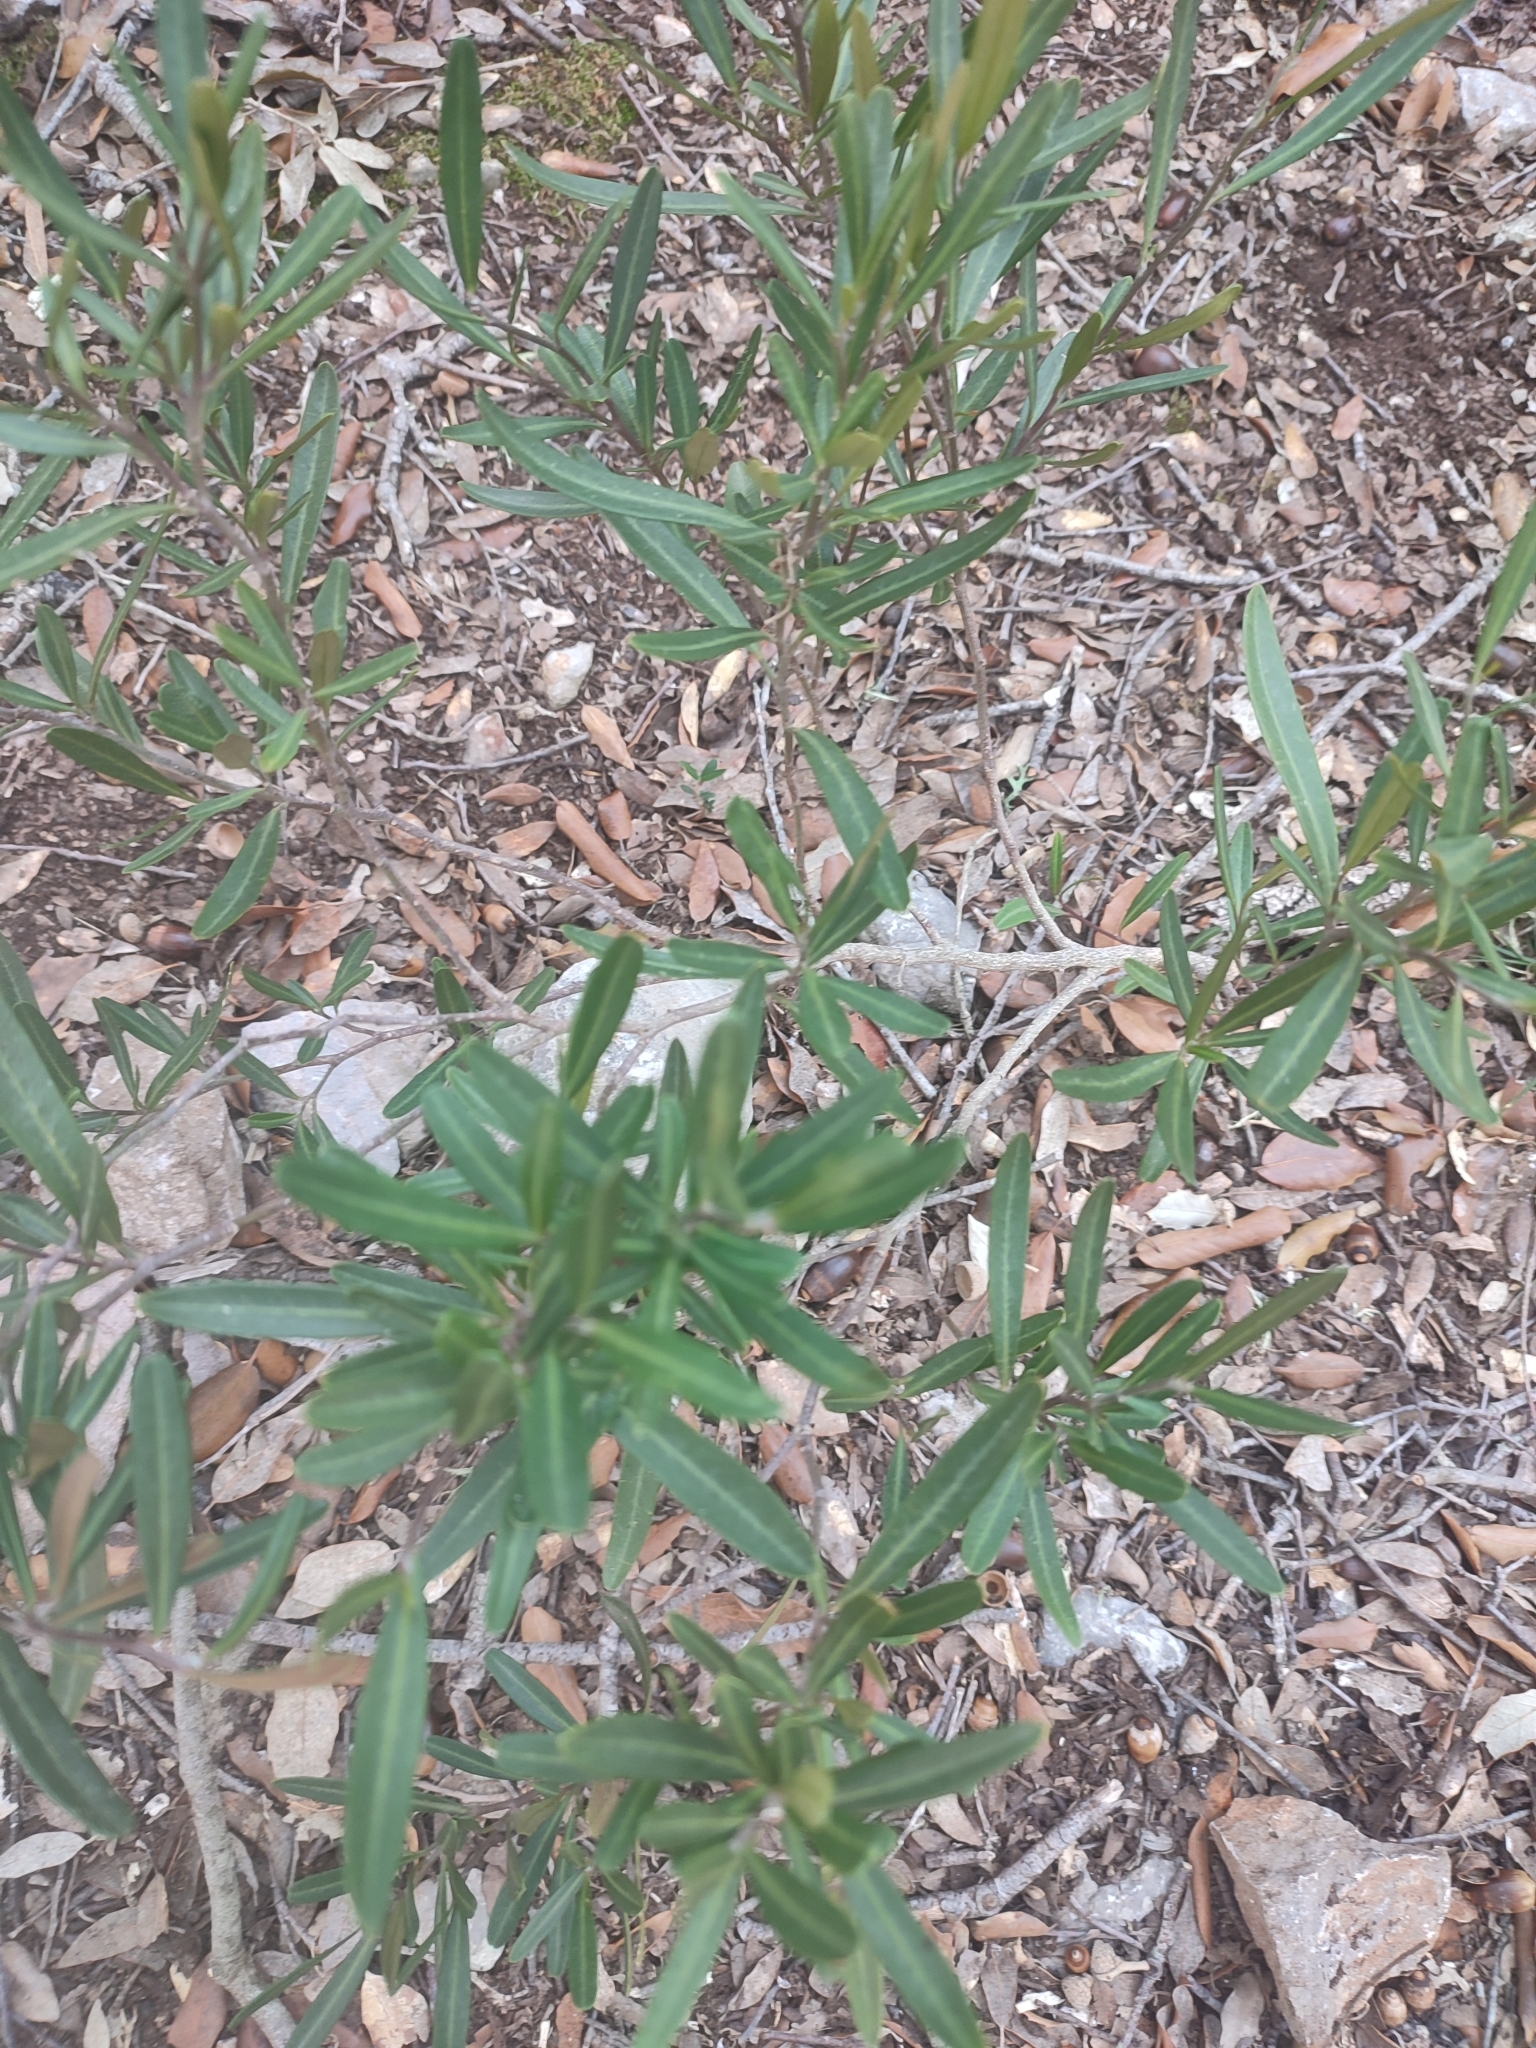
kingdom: Plantae
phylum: Tracheophyta
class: Magnoliopsida
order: Sapindales
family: Rutaceae
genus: Cneorum
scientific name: Cneorum tricoccon
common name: Spurge olive
